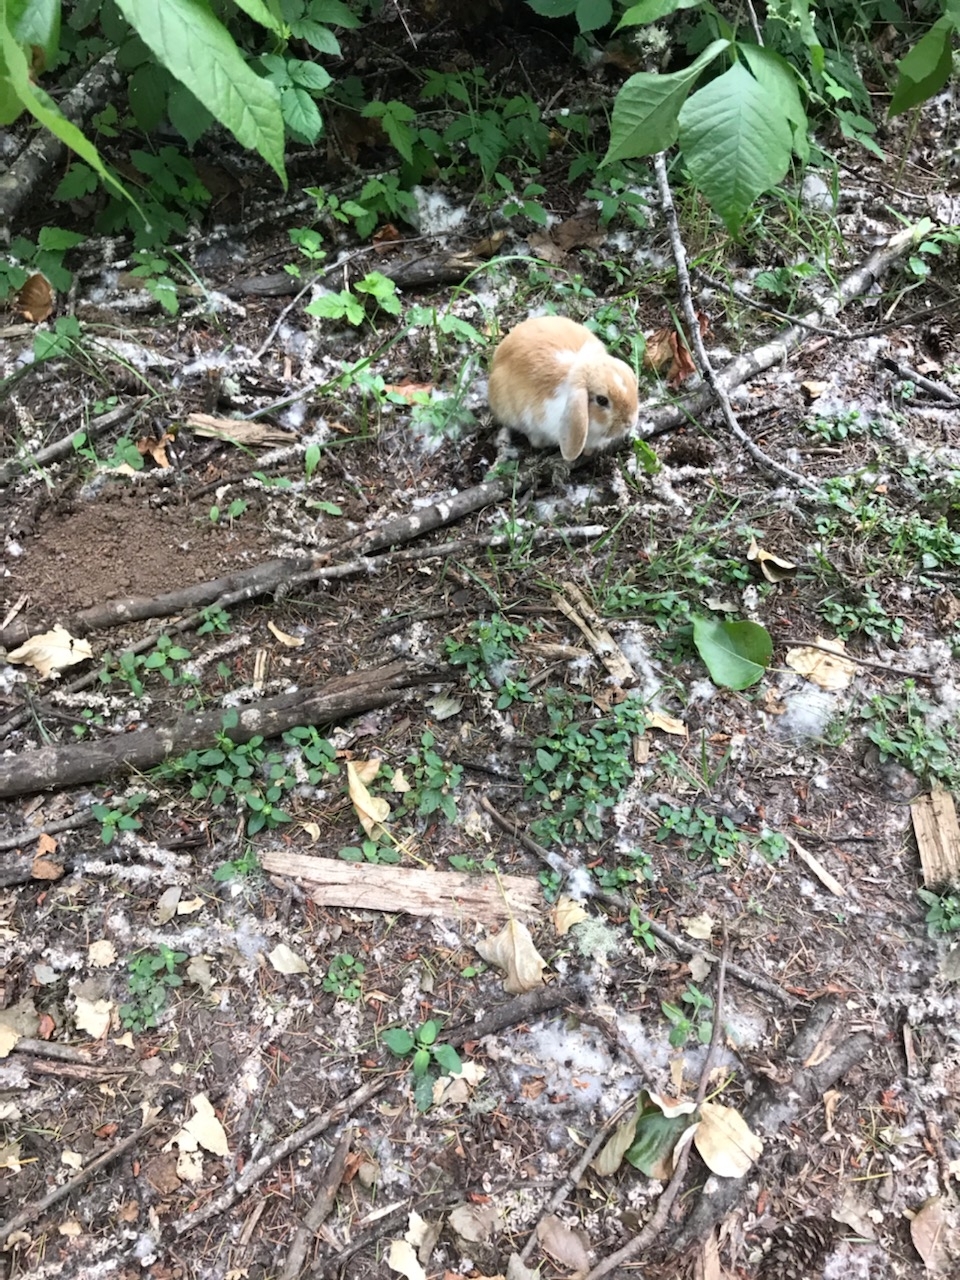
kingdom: Animalia
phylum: Chordata
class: Mammalia
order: Lagomorpha
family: Leporidae
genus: Oryctolagus
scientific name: Oryctolagus cuniculus
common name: European rabbit
